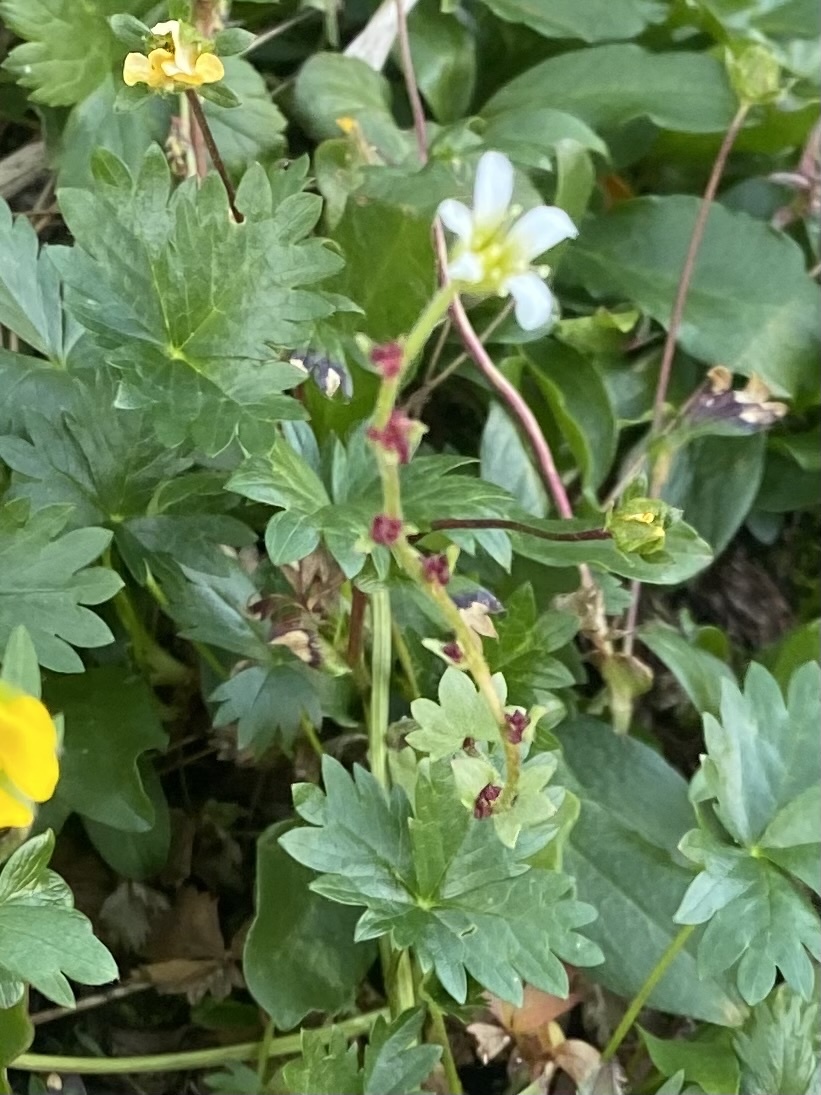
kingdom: Plantae
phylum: Tracheophyta
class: Magnoliopsida
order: Saxifragales
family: Saxifragaceae
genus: Saxifraga
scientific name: Saxifraga cernua
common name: Drooping saxifrage
